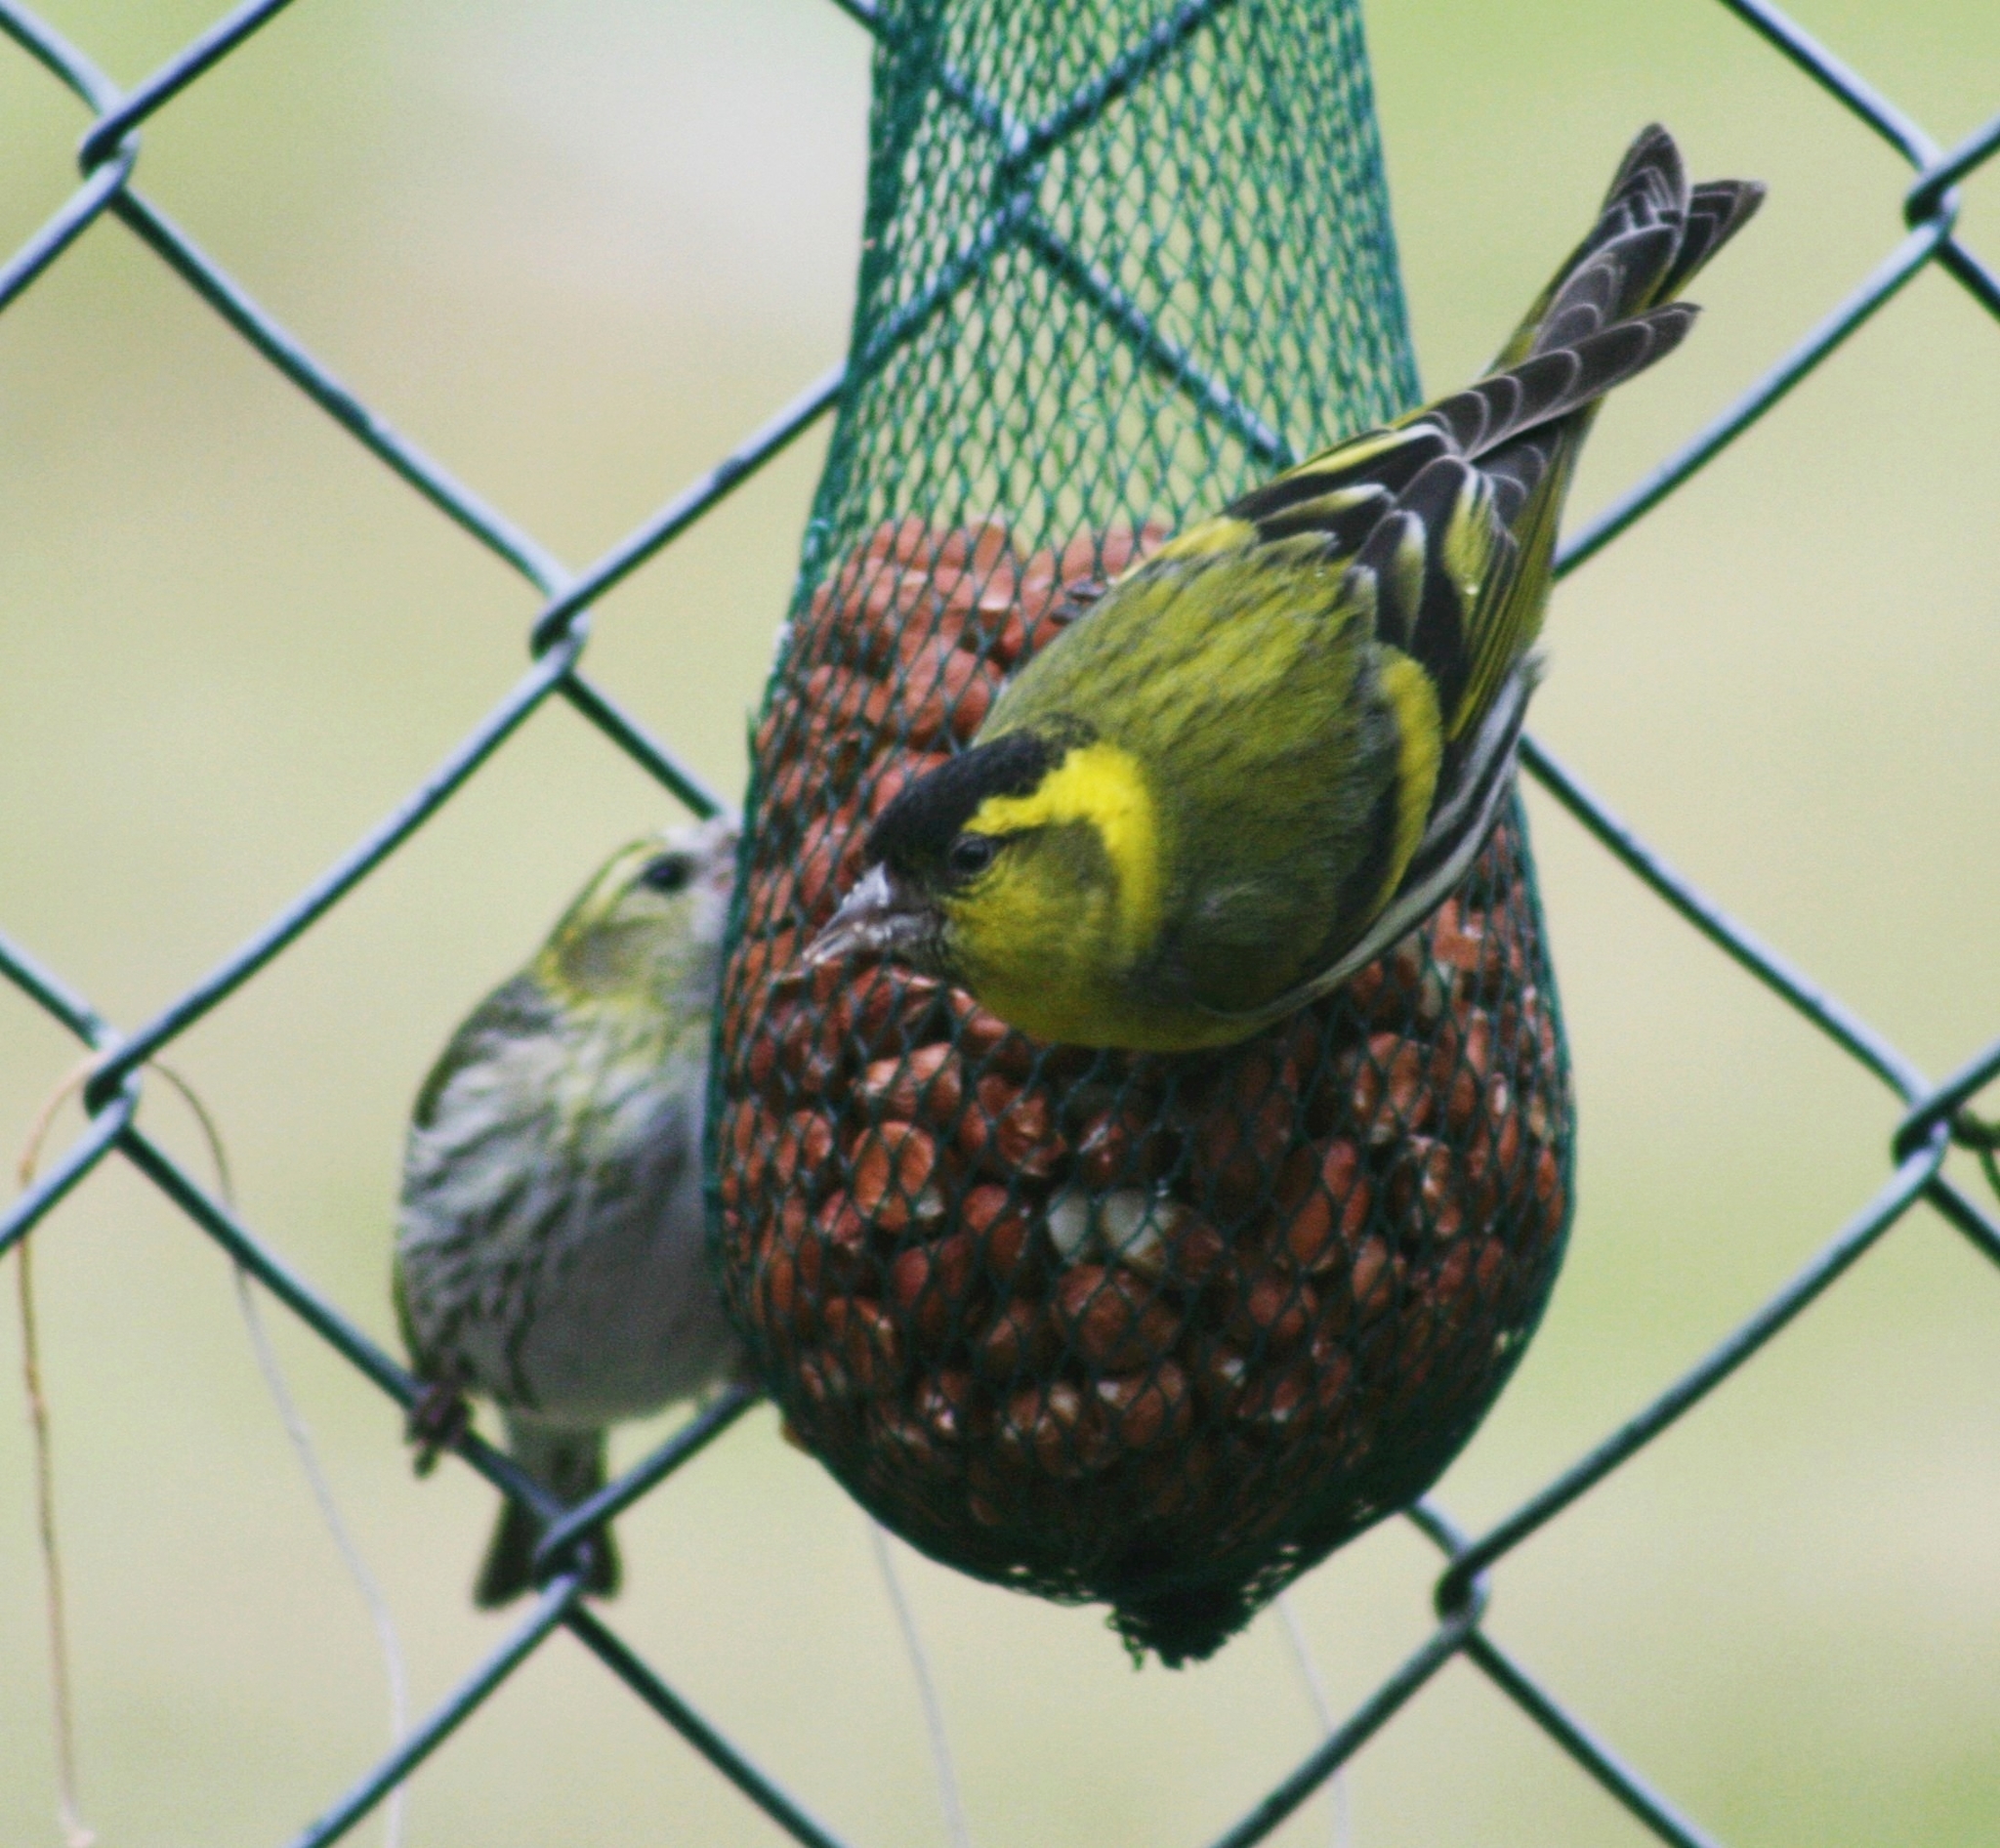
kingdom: Animalia
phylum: Chordata
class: Aves
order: Passeriformes
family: Fringillidae
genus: Spinus
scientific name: Spinus spinus
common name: Eurasian siskin
